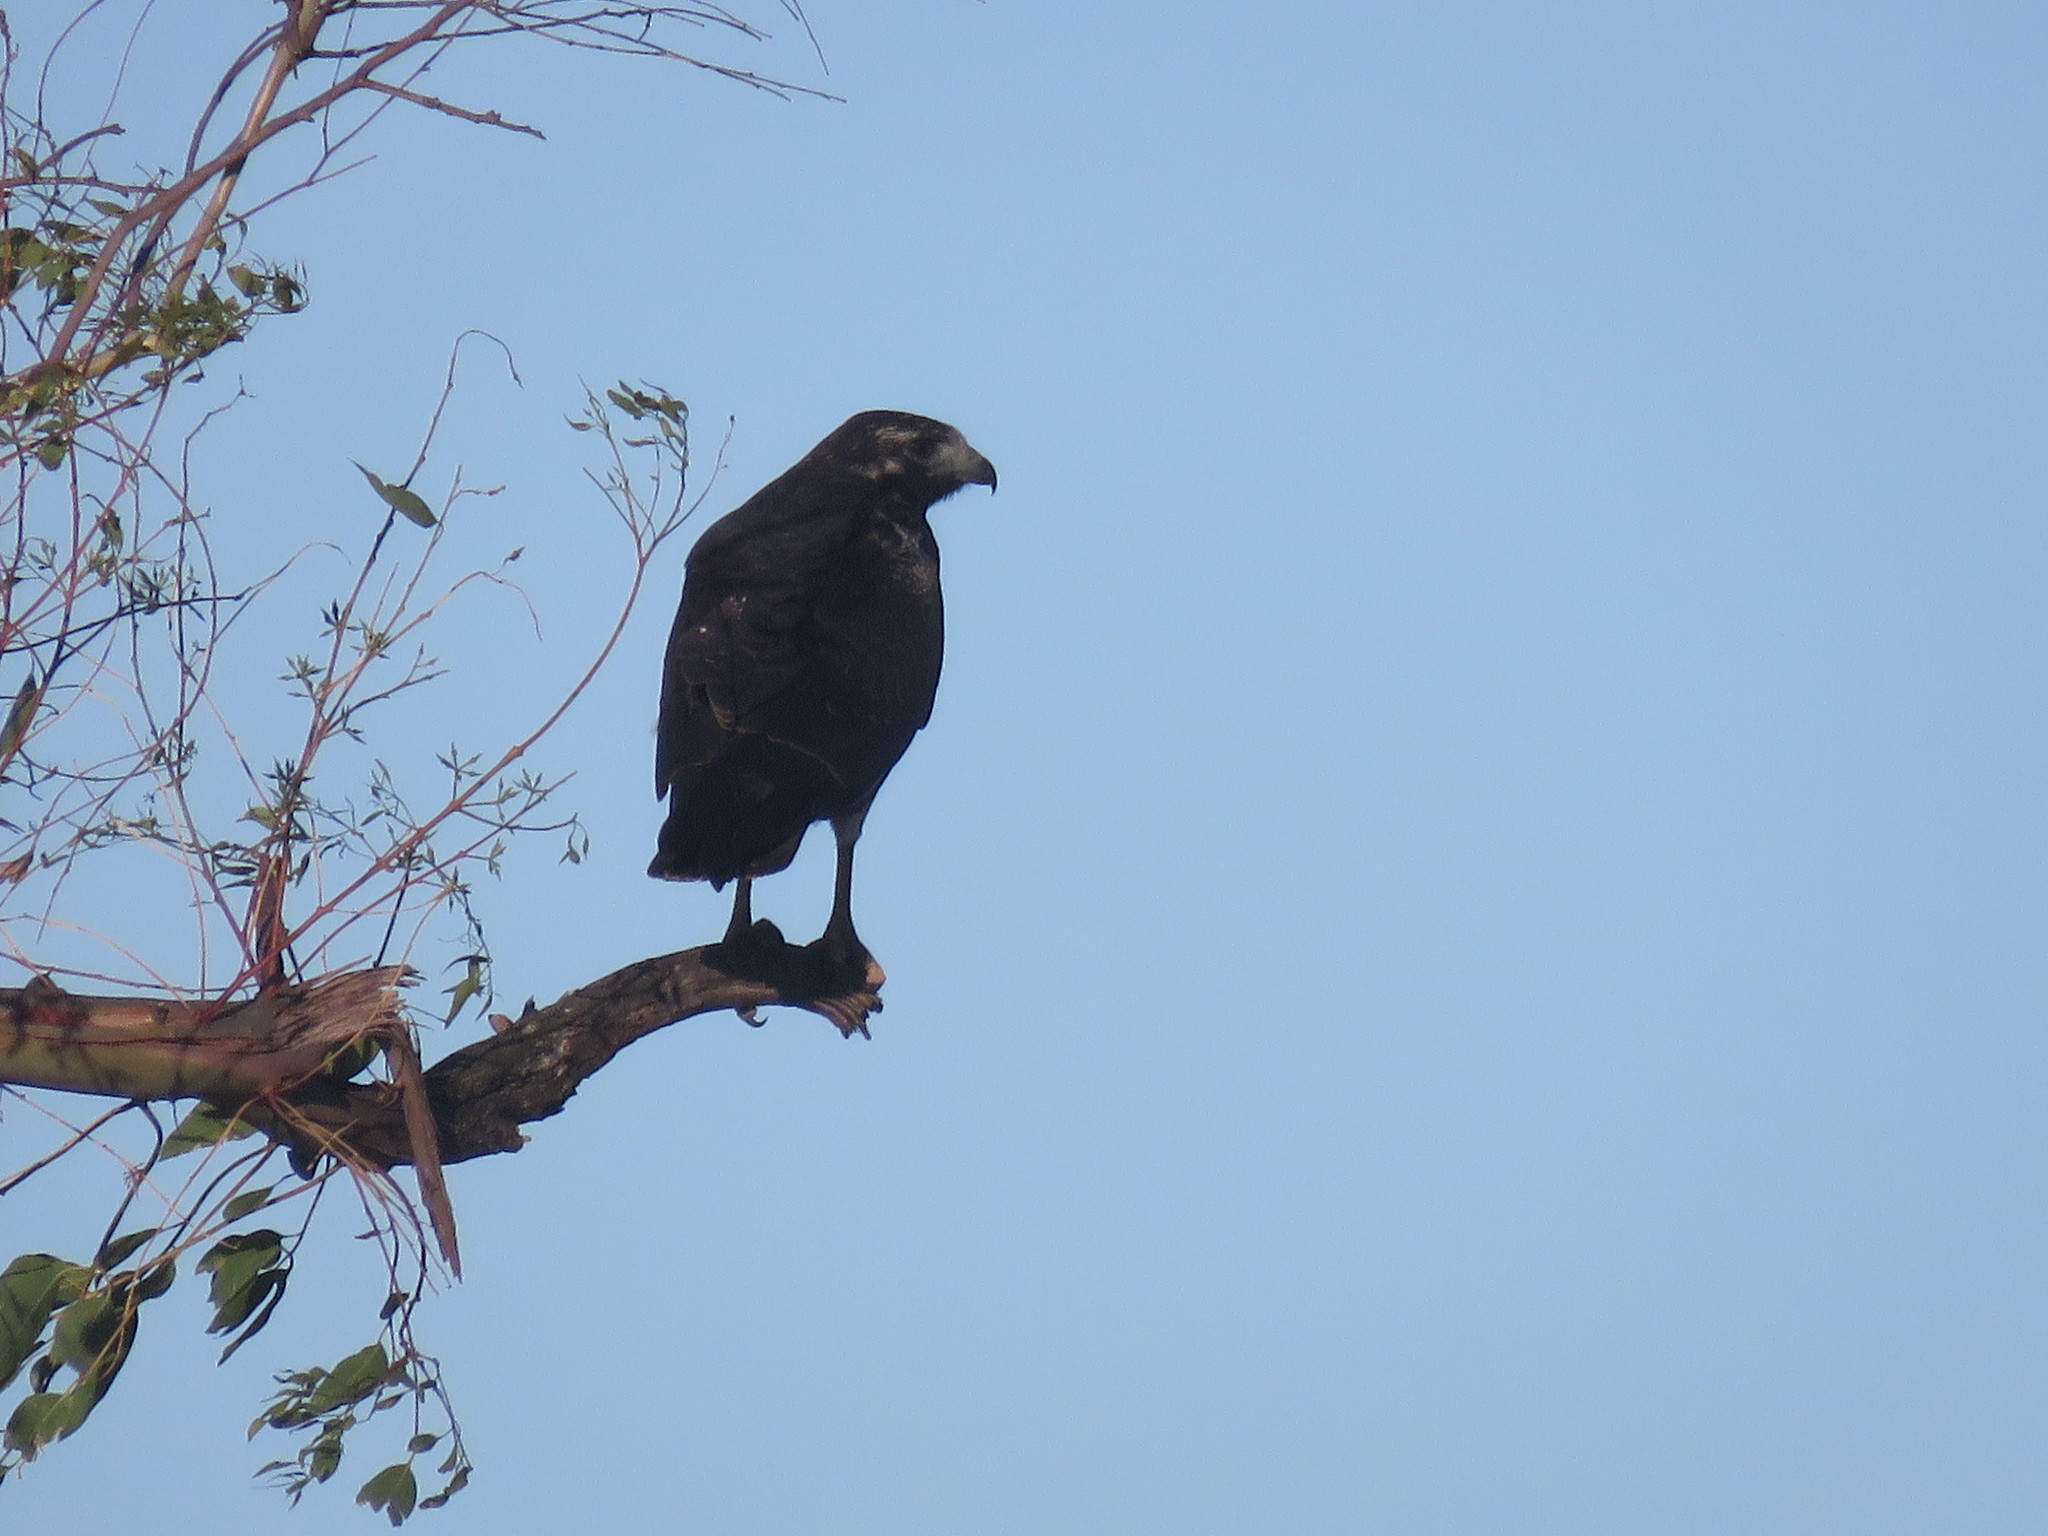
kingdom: Animalia
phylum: Chordata
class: Aves
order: Accipitriformes
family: Accipitridae
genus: Buteo
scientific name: Buteo albicaudatus
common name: White-tailed hawk
